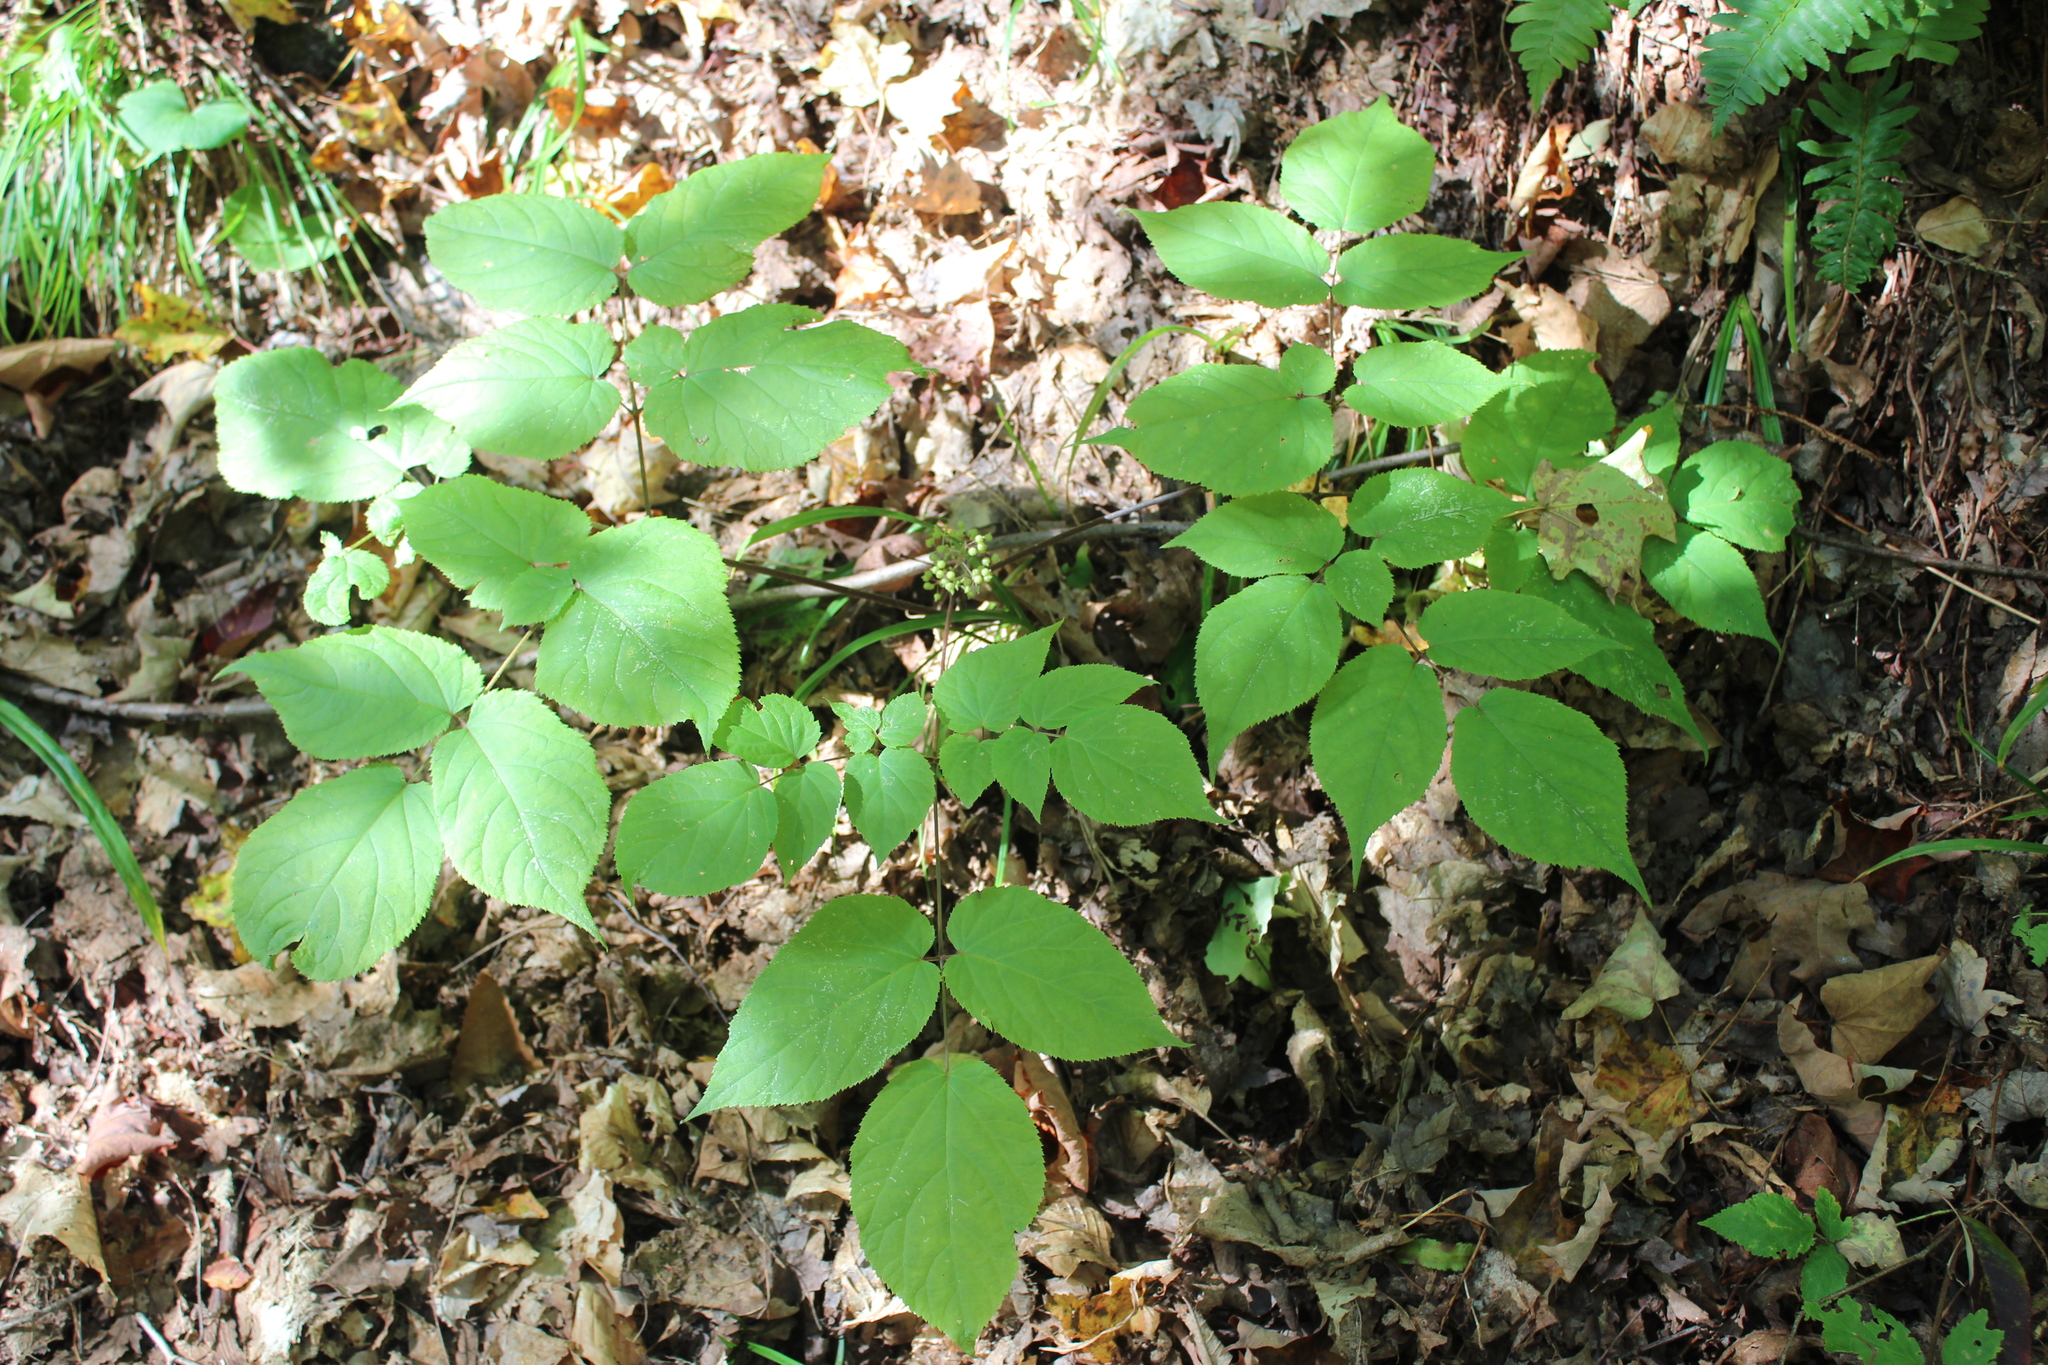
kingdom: Plantae
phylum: Tracheophyta
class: Magnoliopsida
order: Apiales
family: Araliaceae
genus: Aralia
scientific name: Aralia racemosa
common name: American-spikenard
